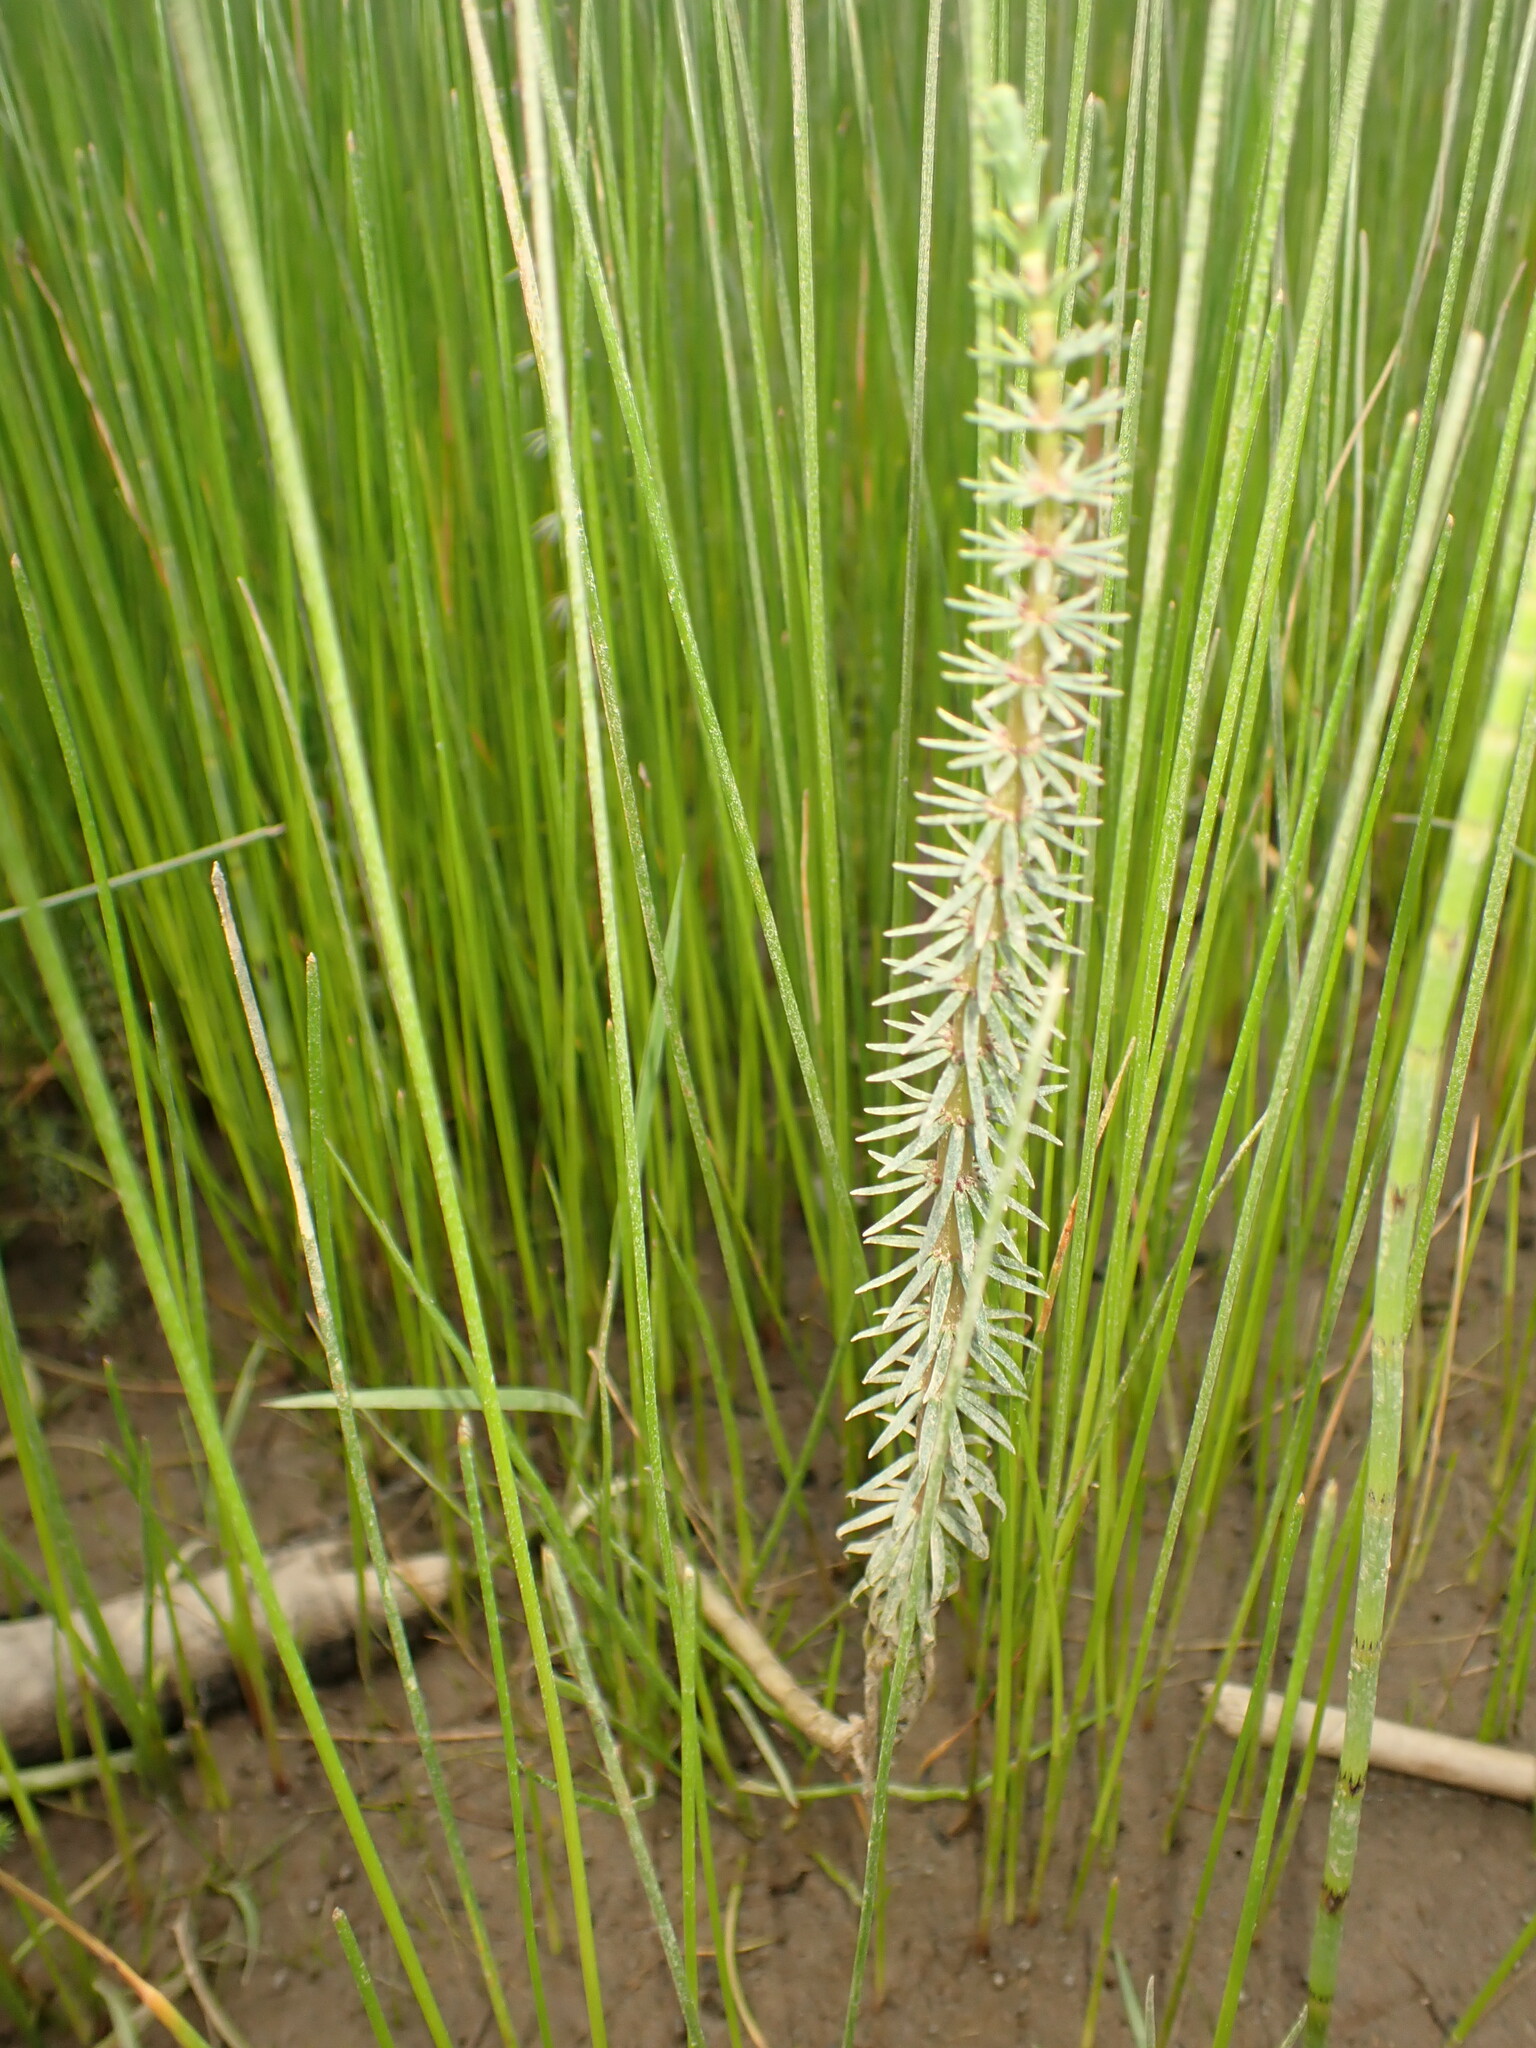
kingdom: Plantae
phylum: Tracheophyta
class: Magnoliopsida
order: Lamiales
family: Plantaginaceae
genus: Hippuris
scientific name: Hippuris vulgaris
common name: Mare's-tail
